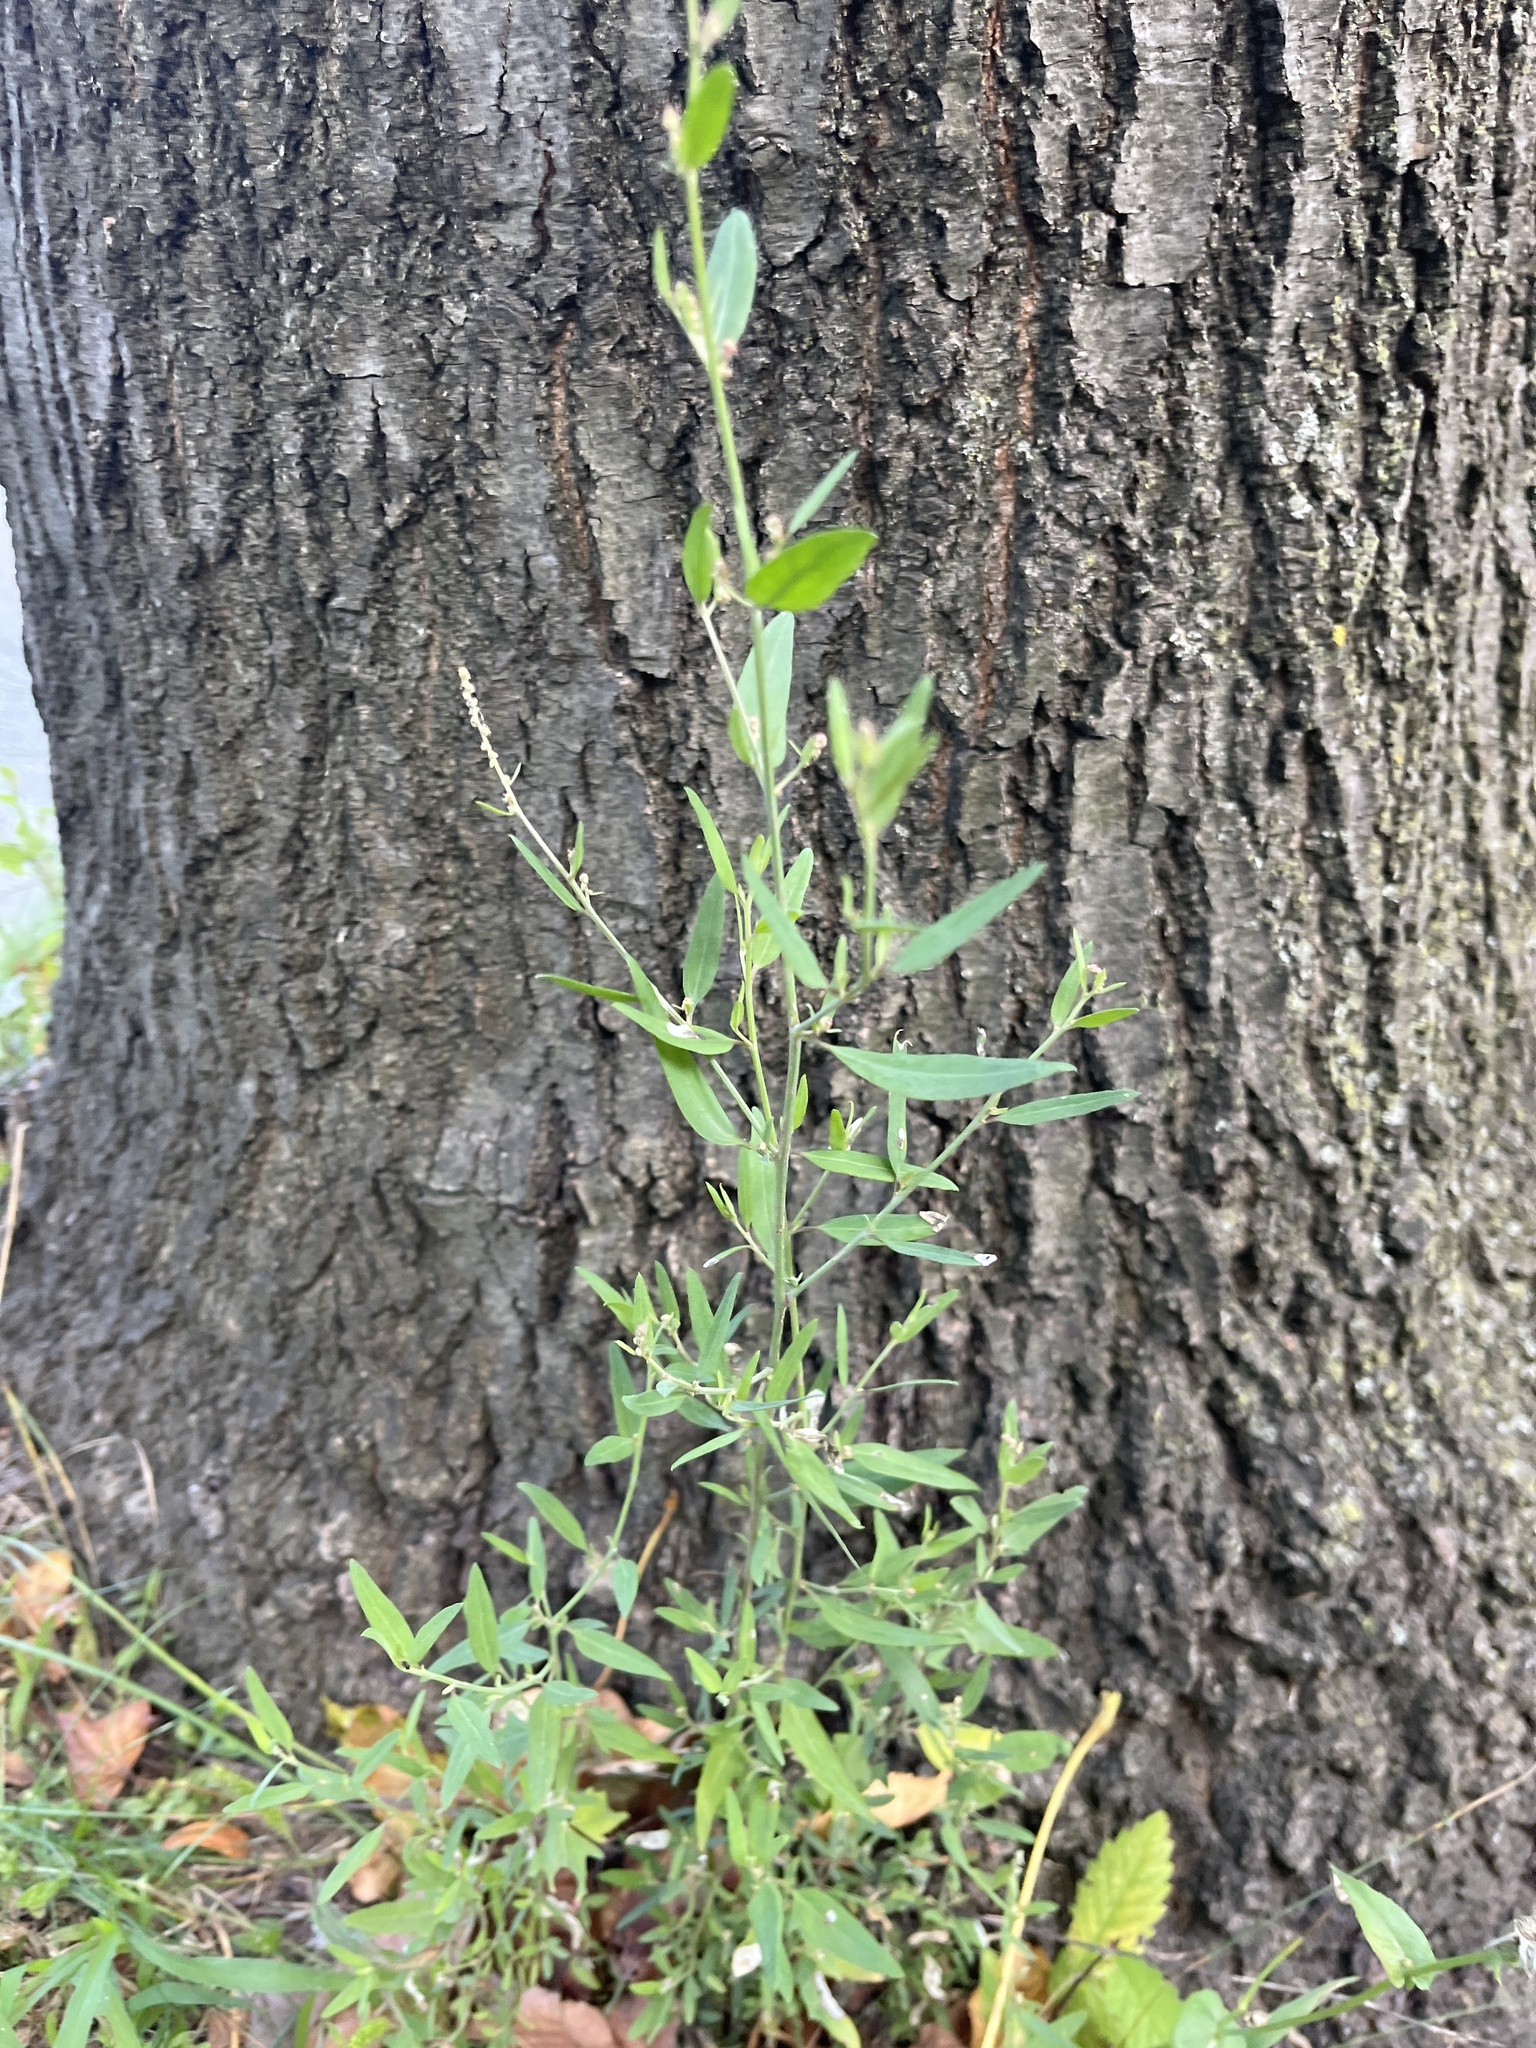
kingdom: Plantae
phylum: Tracheophyta
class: Magnoliopsida
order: Caryophyllales
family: Amaranthaceae
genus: Atriplex
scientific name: Atriplex patula
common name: Common orache
